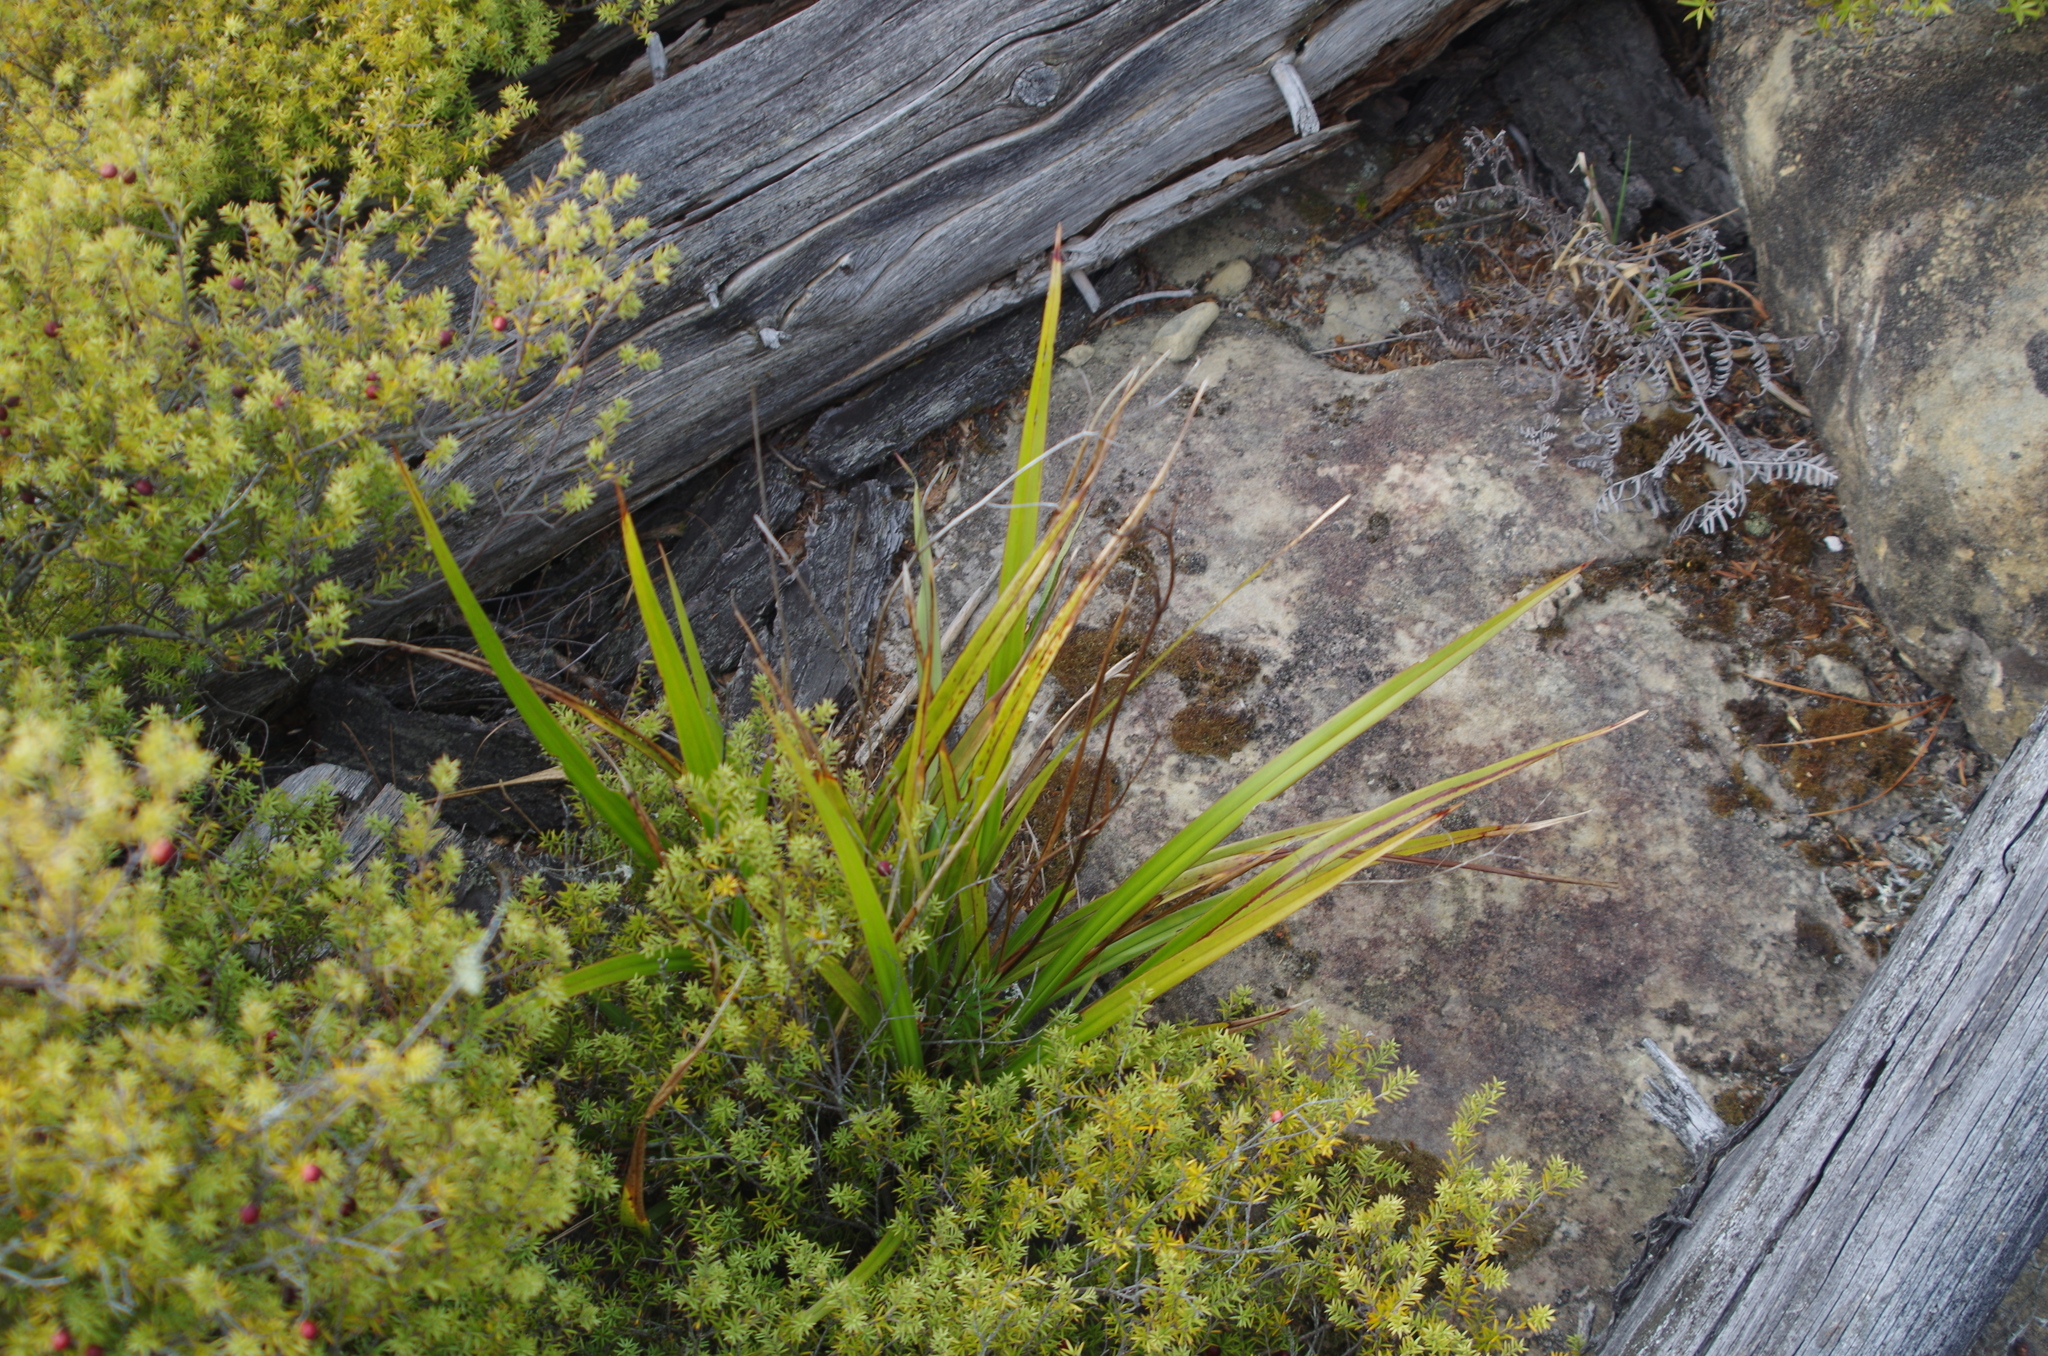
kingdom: Plantae
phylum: Tracheophyta
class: Liliopsida
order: Asparagales
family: Asphodelaceae
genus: Dianella
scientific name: Dianella nigra
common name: New zealand-blueberry
